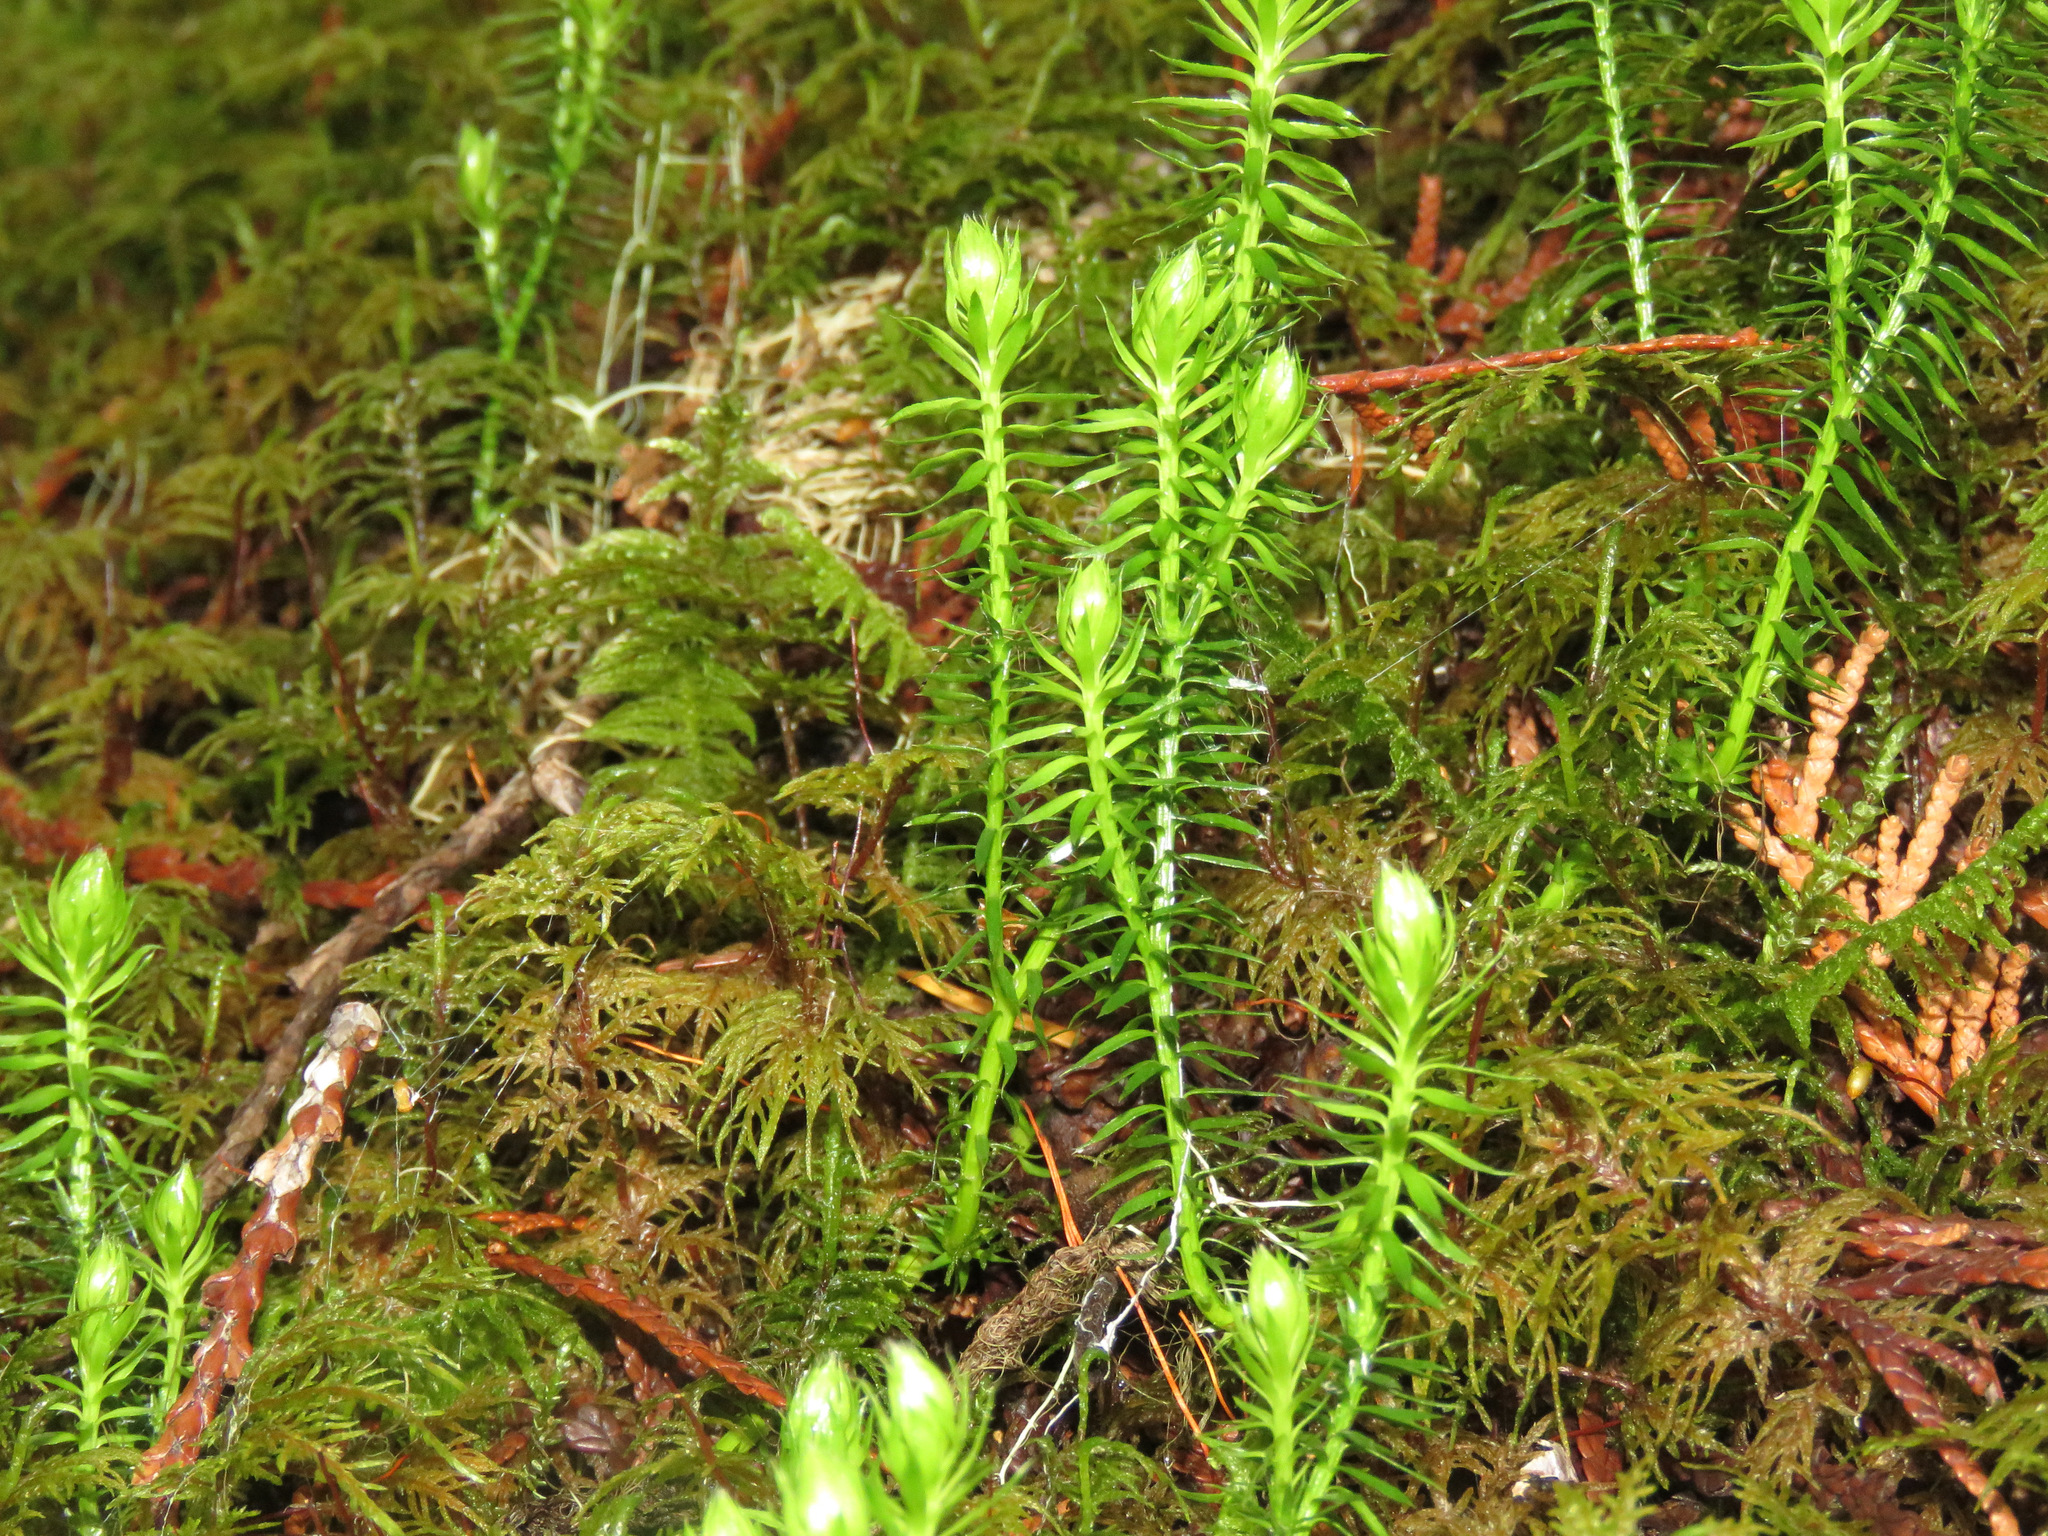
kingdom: Plantae
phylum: Tracheophyta
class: Lycopodiopsida
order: Lycopodiales
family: Lycopodiaceae
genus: Spinulum
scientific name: Spinulum annotinum
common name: Interrupted club-moss
